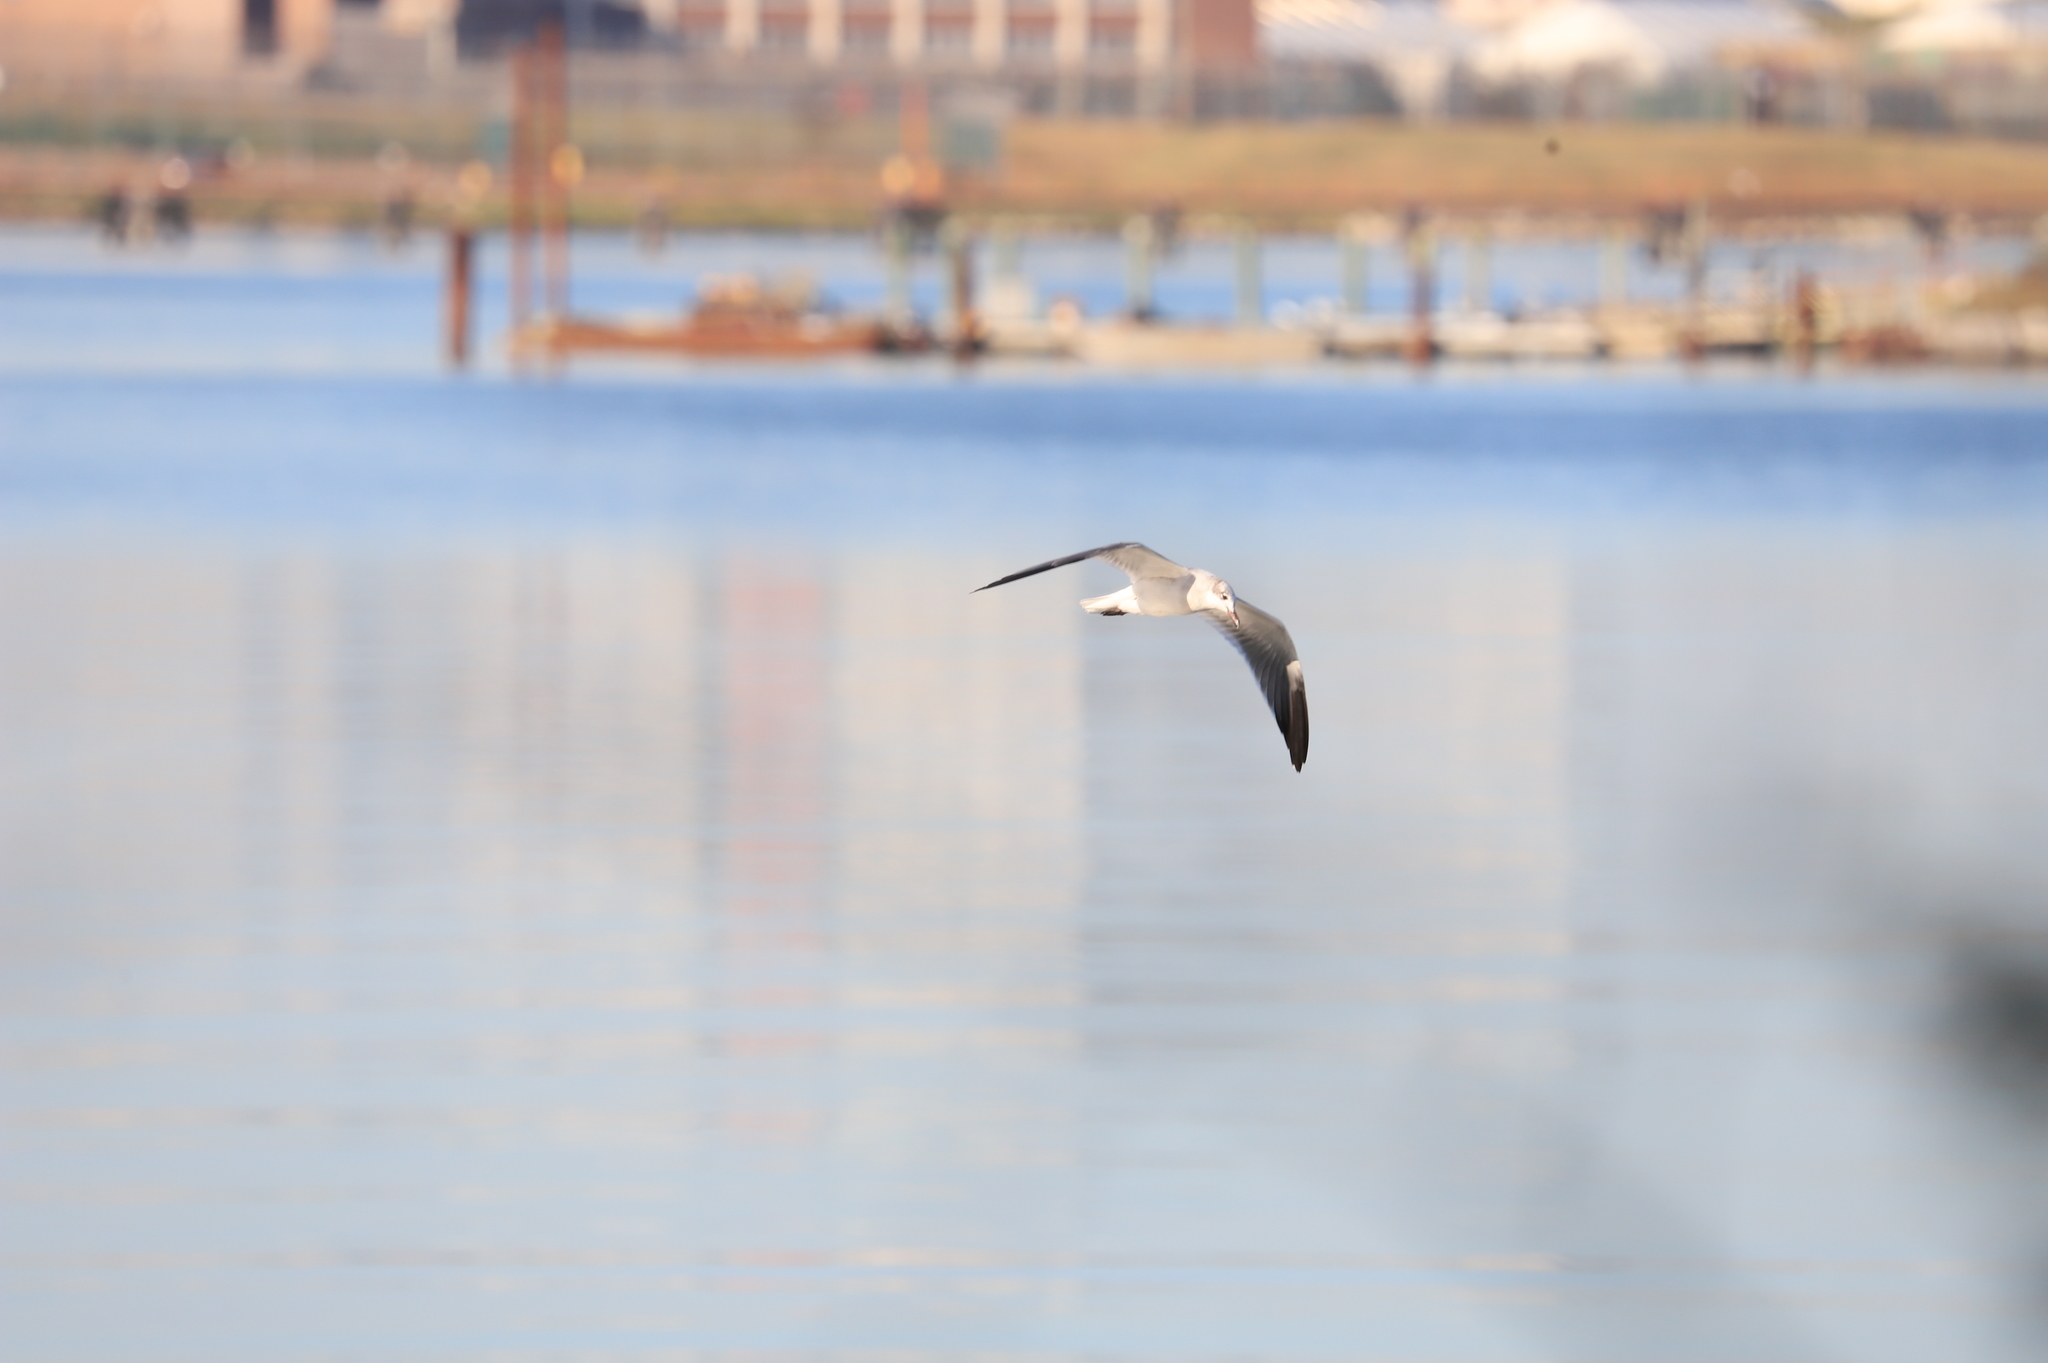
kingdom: Animalia
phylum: Chordata
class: Aves
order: Charadriiformes
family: Laridae
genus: Leucophaeus
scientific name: Leucophaeus atricilla
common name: Laughing gull
